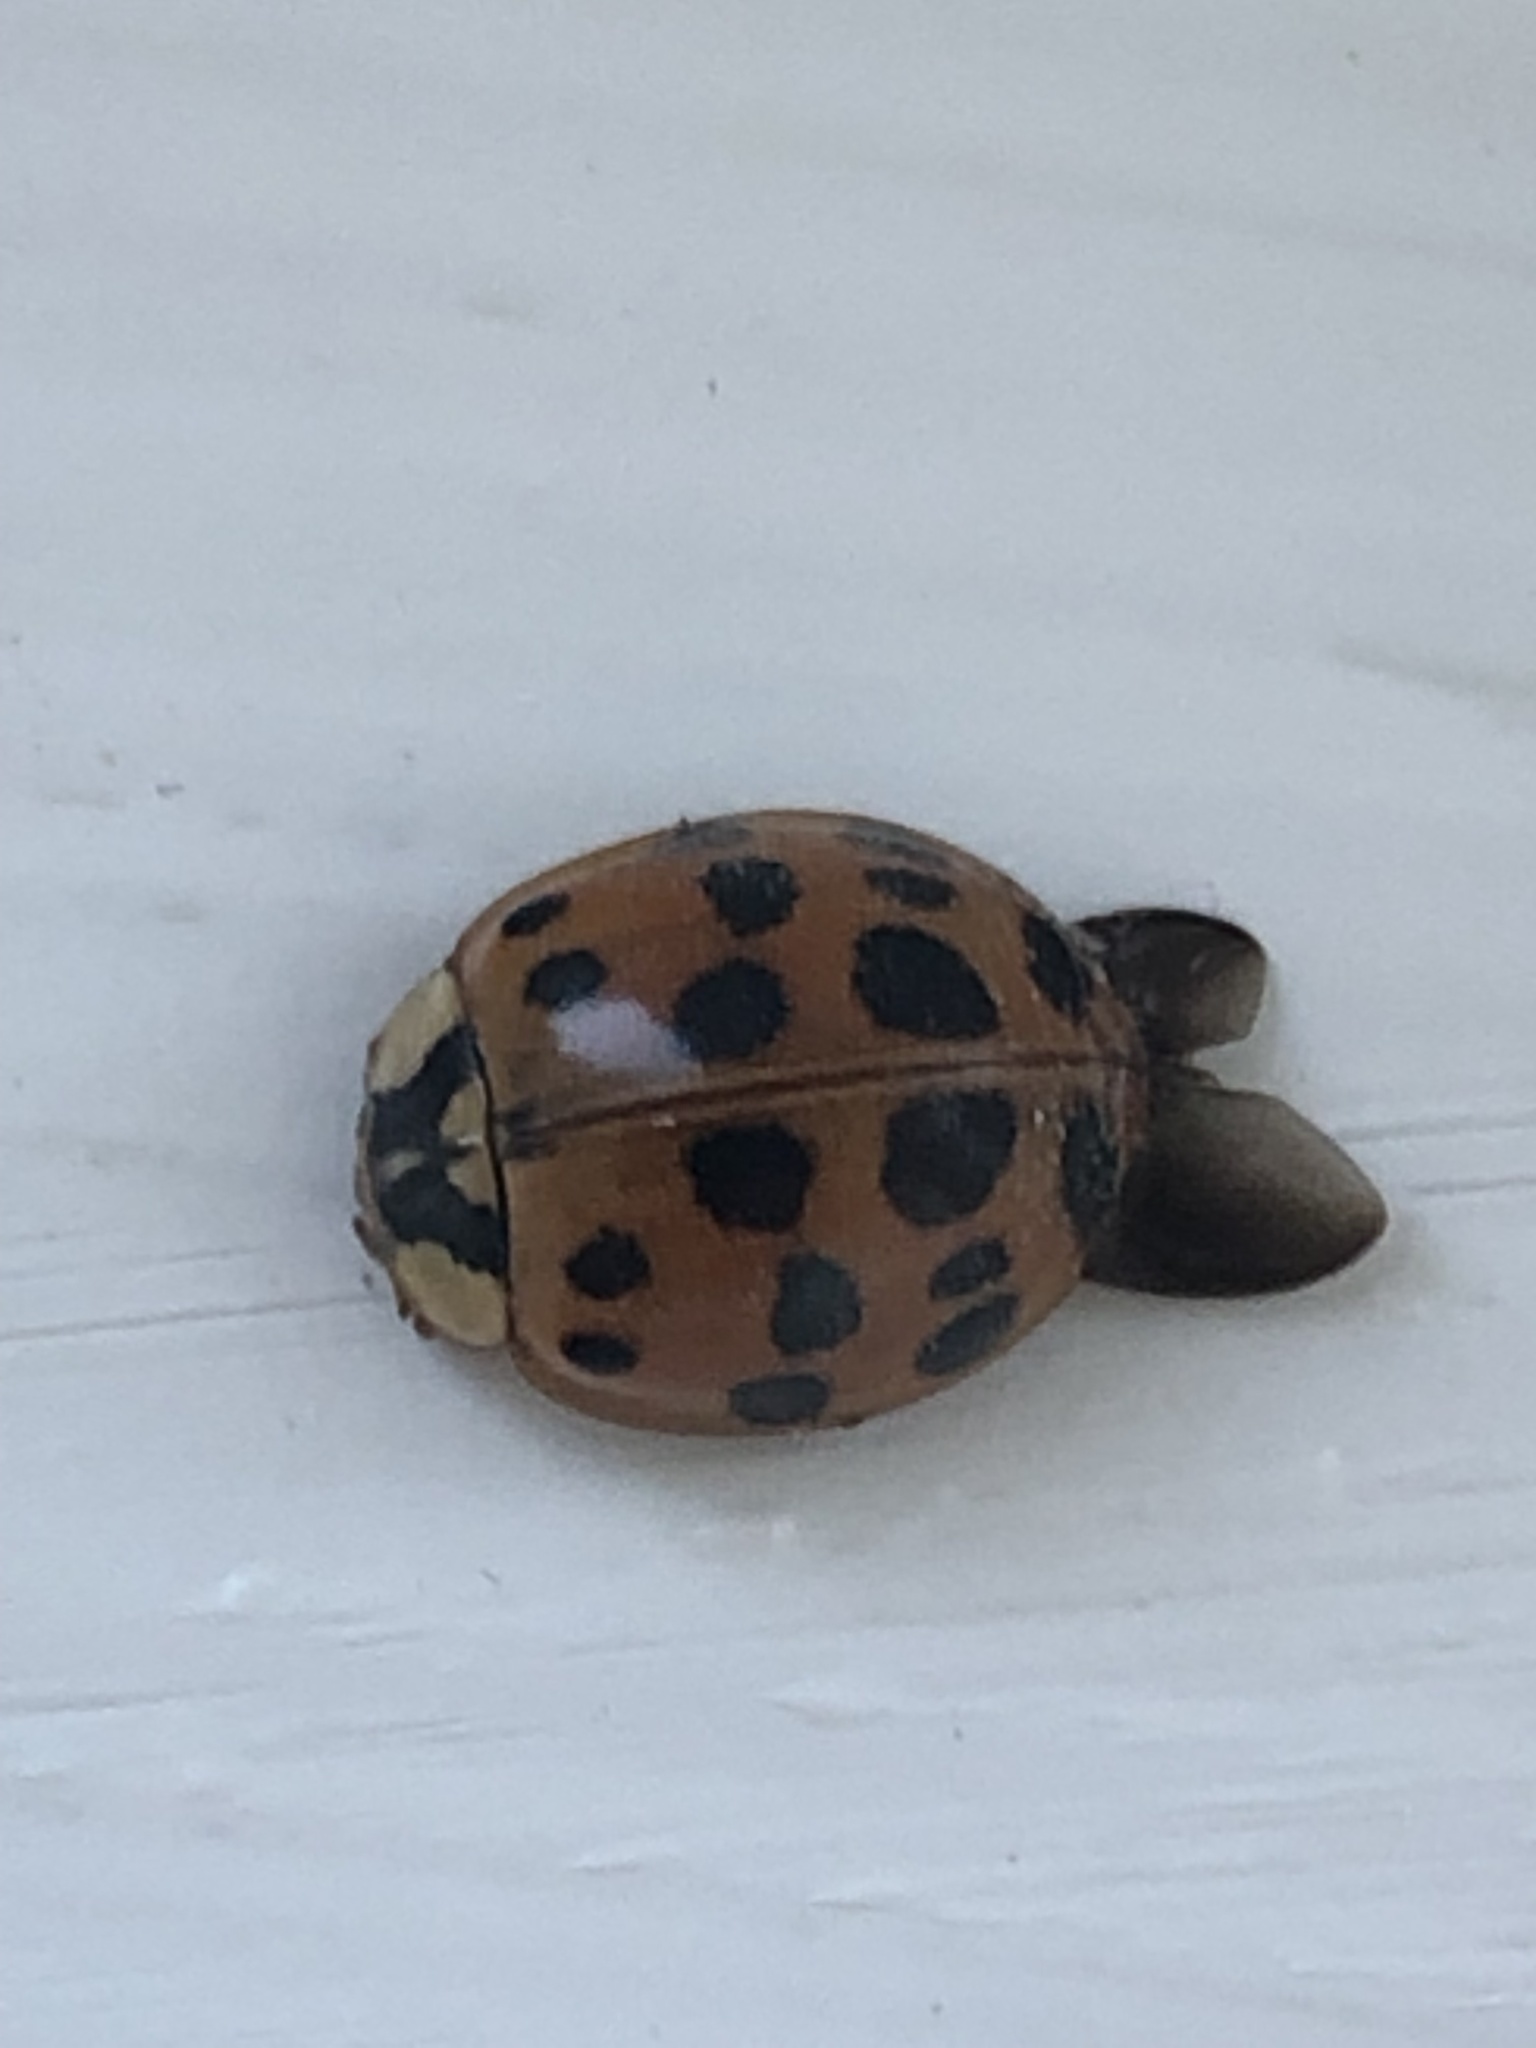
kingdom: Animalia
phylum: Arthropoda
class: Insecta
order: Coleoptera
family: Coccinellidae
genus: Harmonia
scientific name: Harmonia axyridis
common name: Harlequin ladybird
